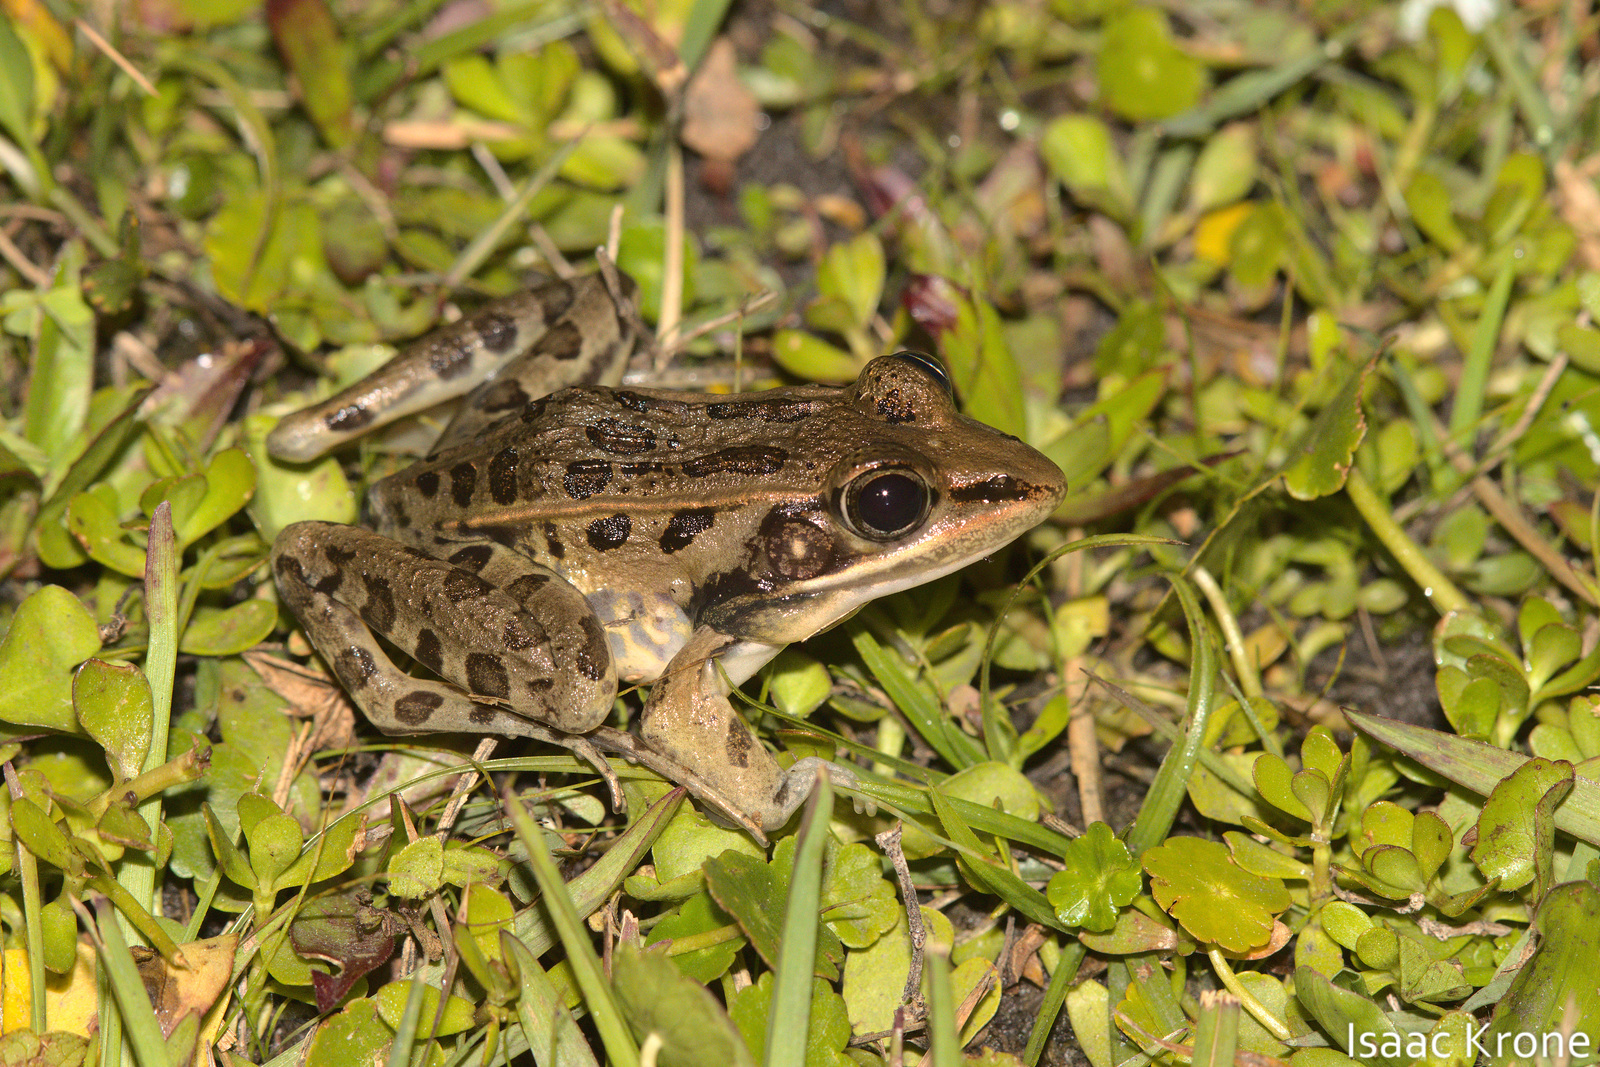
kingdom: Animalia
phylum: Chordata
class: Amphibia
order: Anura
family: Ranidae
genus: Lithobates
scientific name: Lithobates sphenocephalus
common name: Southern leopard frog
